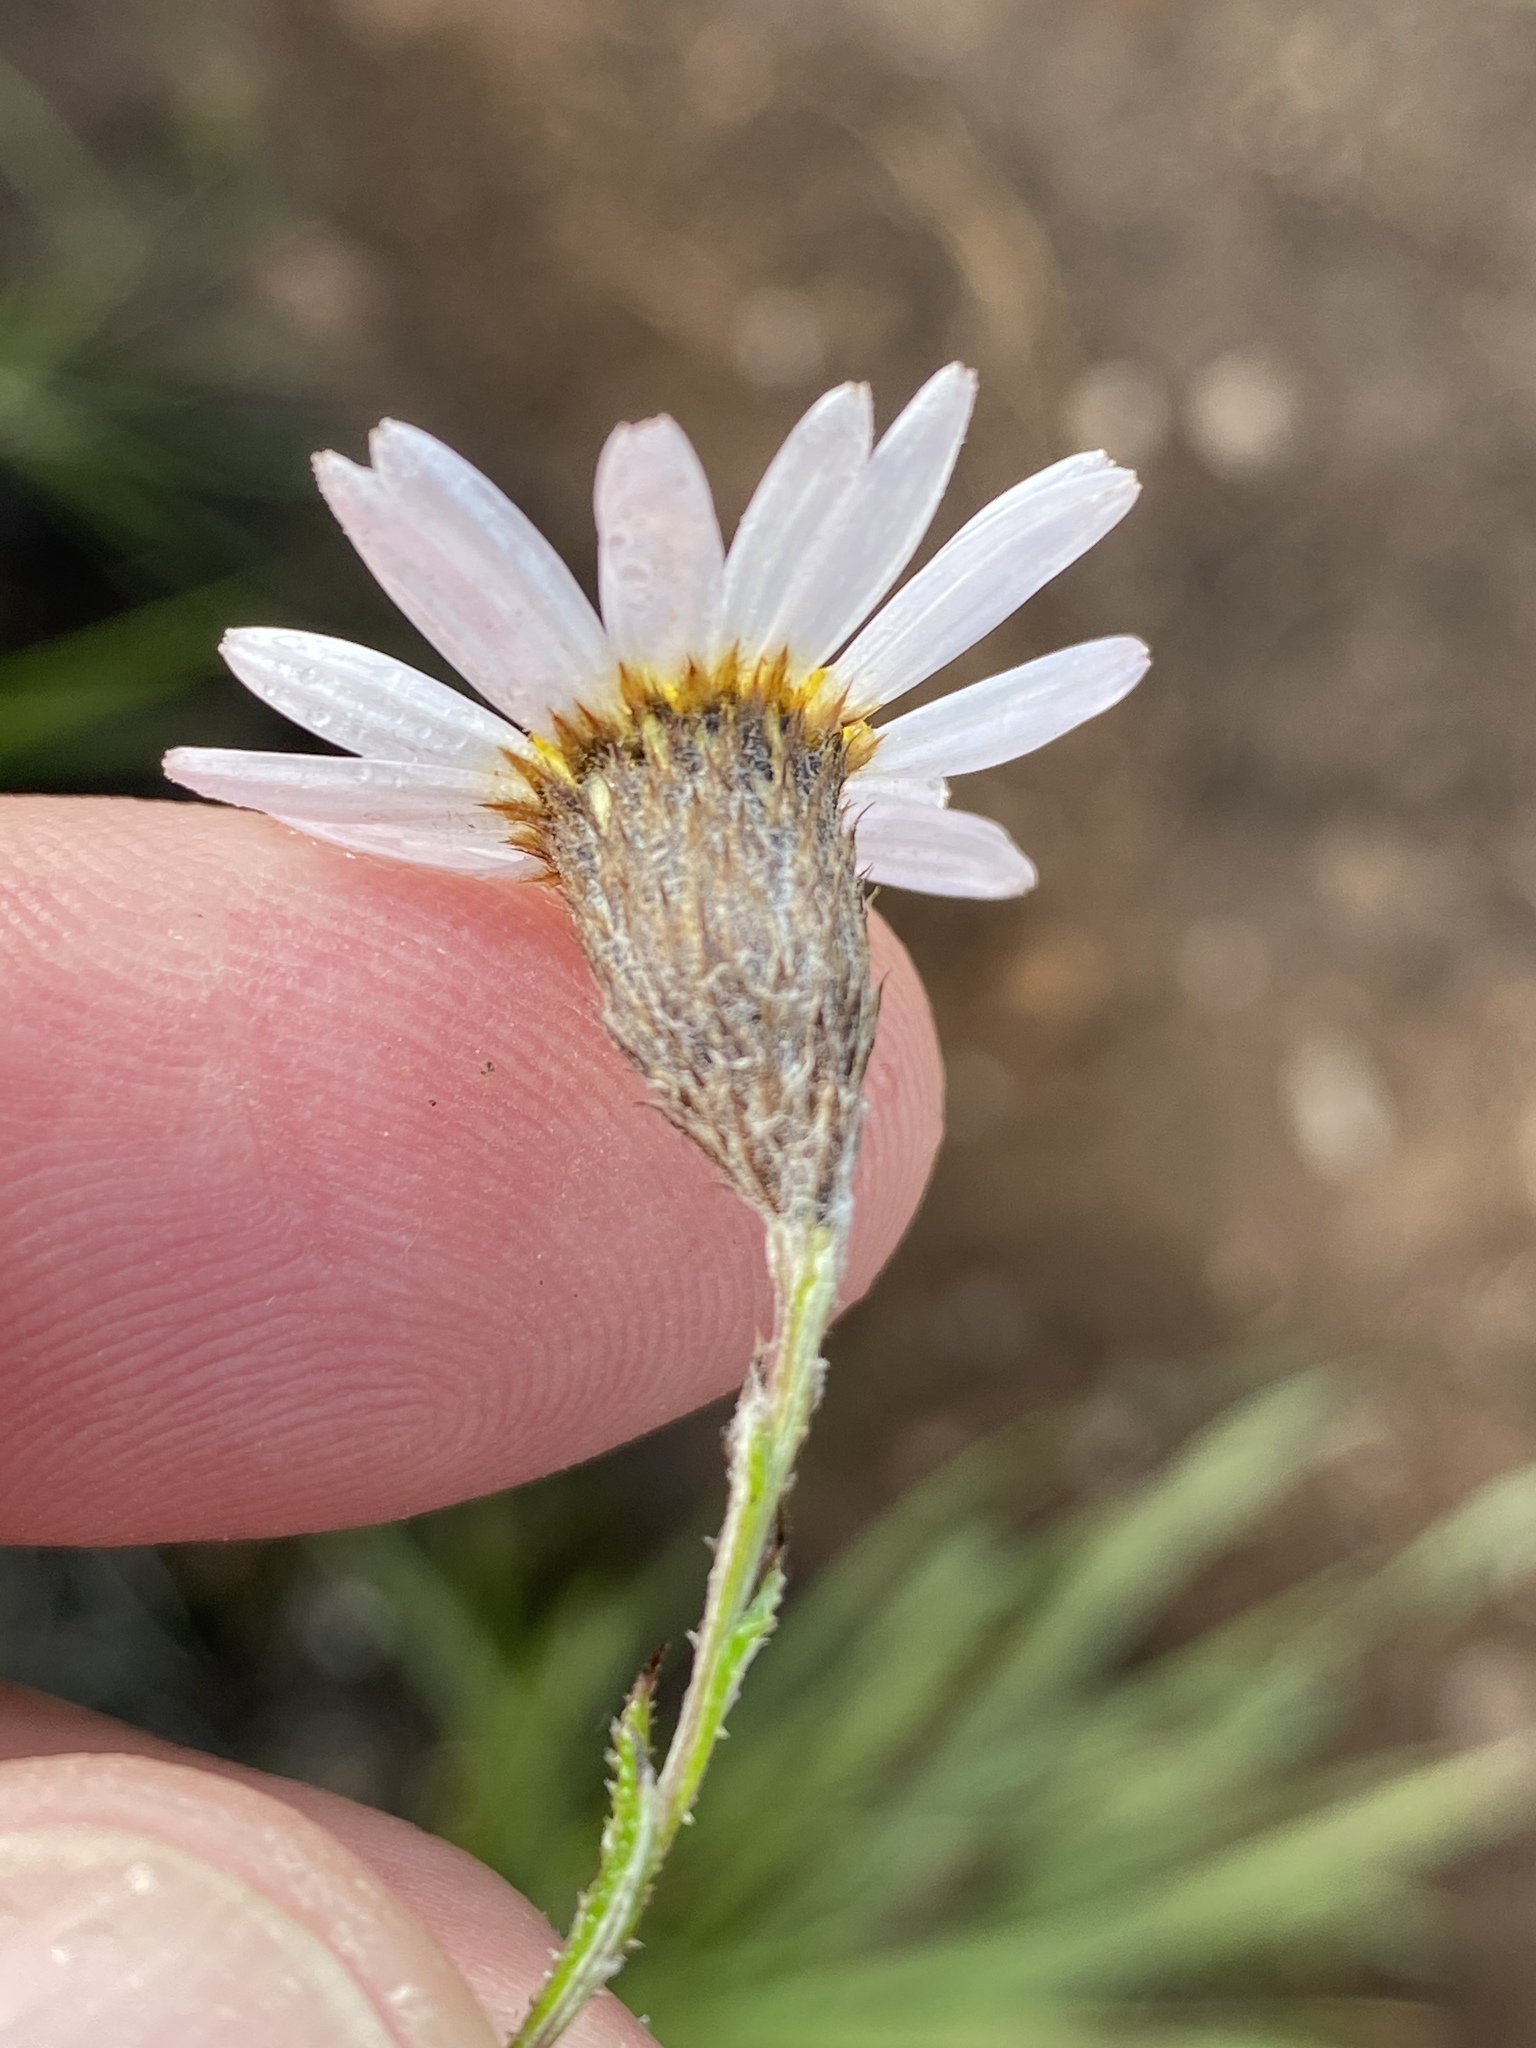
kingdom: Plantae
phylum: Tracheophyta
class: Magnoliopsida
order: Asterales
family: Asteraceae
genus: Athrixia
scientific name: Athrixia heterophylla
